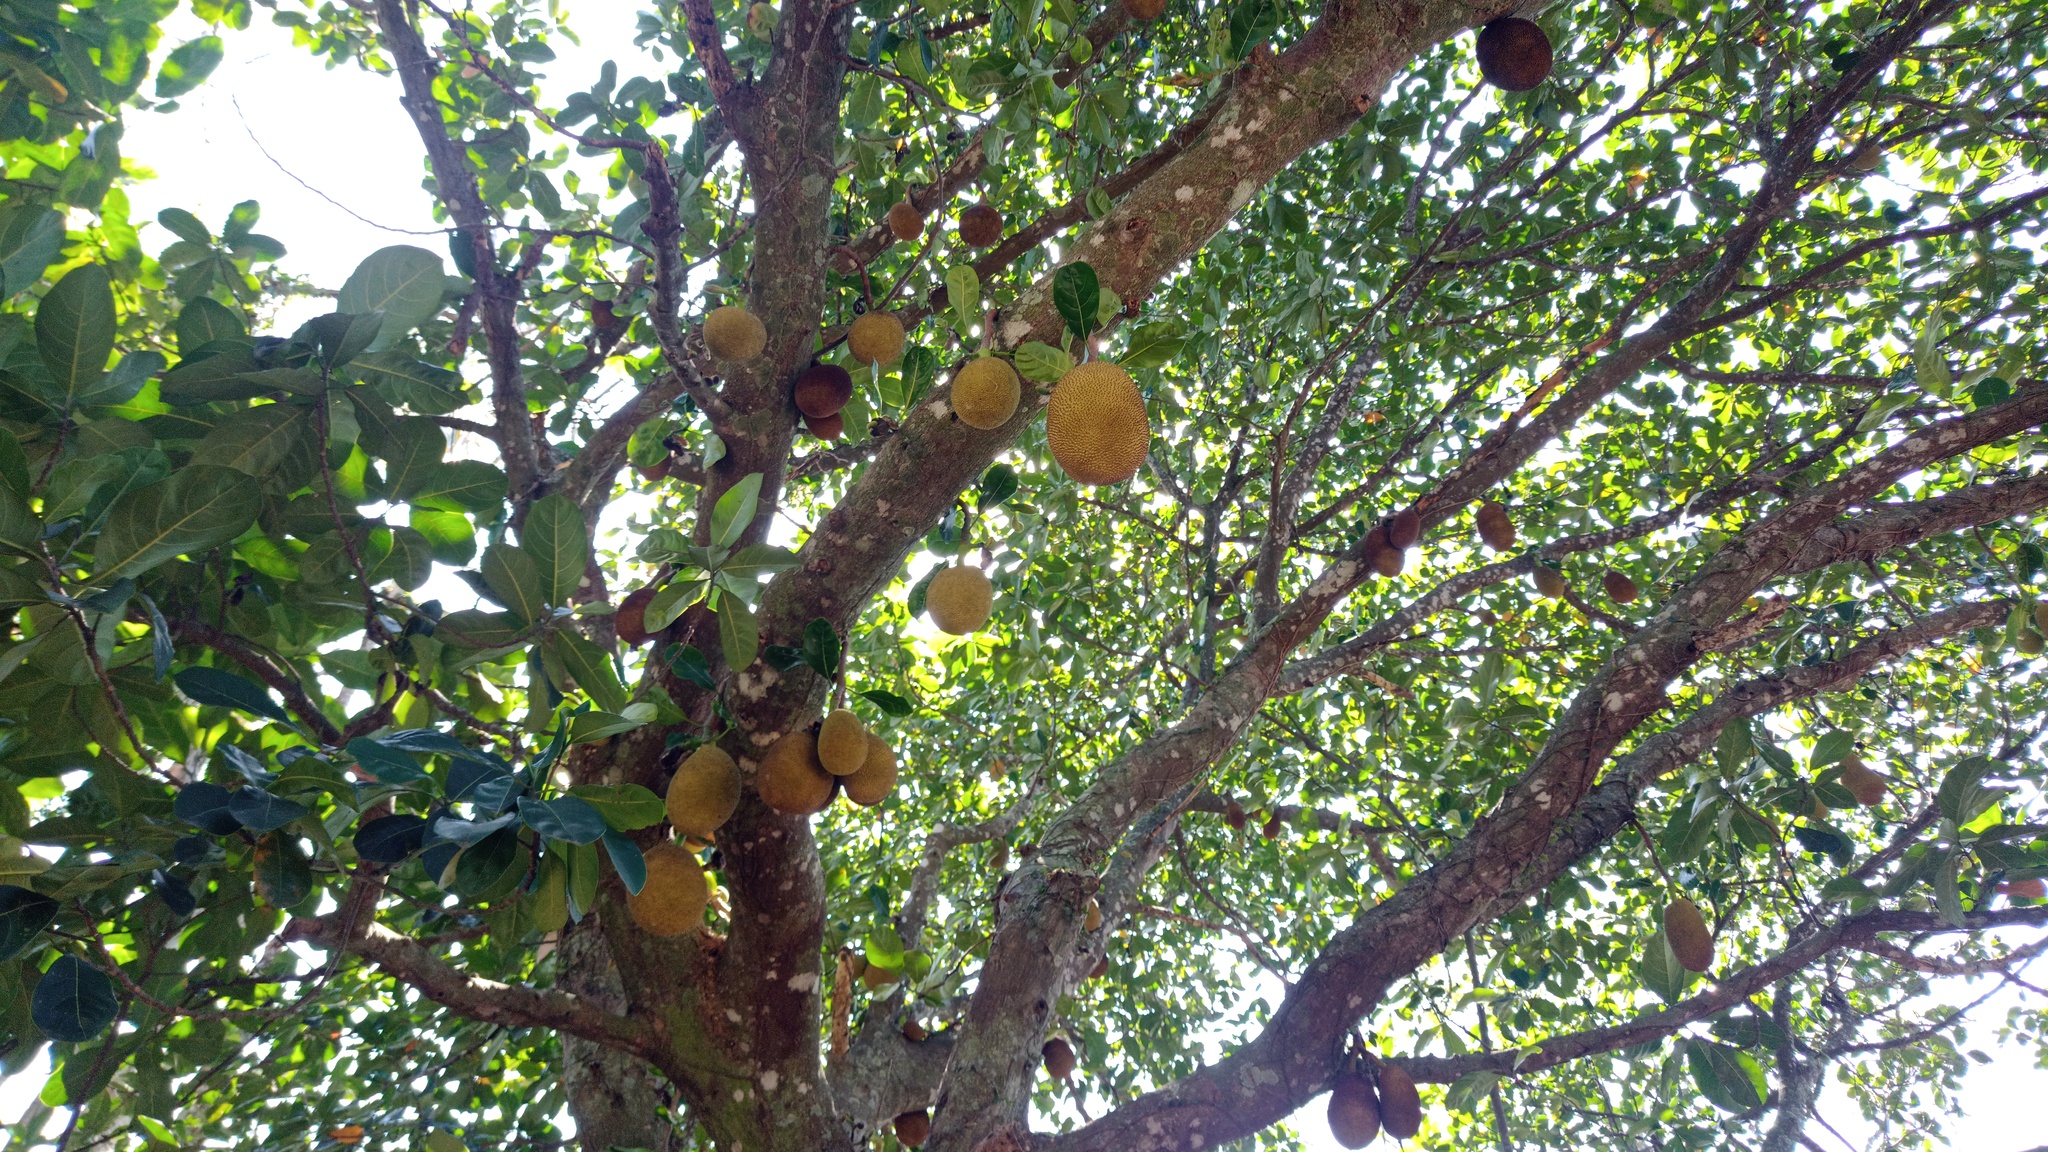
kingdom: Plantae
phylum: Tracheophyta
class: Magnoliopsida
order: Rosales
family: Moraceae
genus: Artocarpus
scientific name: Artocarpus heterophyllus
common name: Jackfruit
